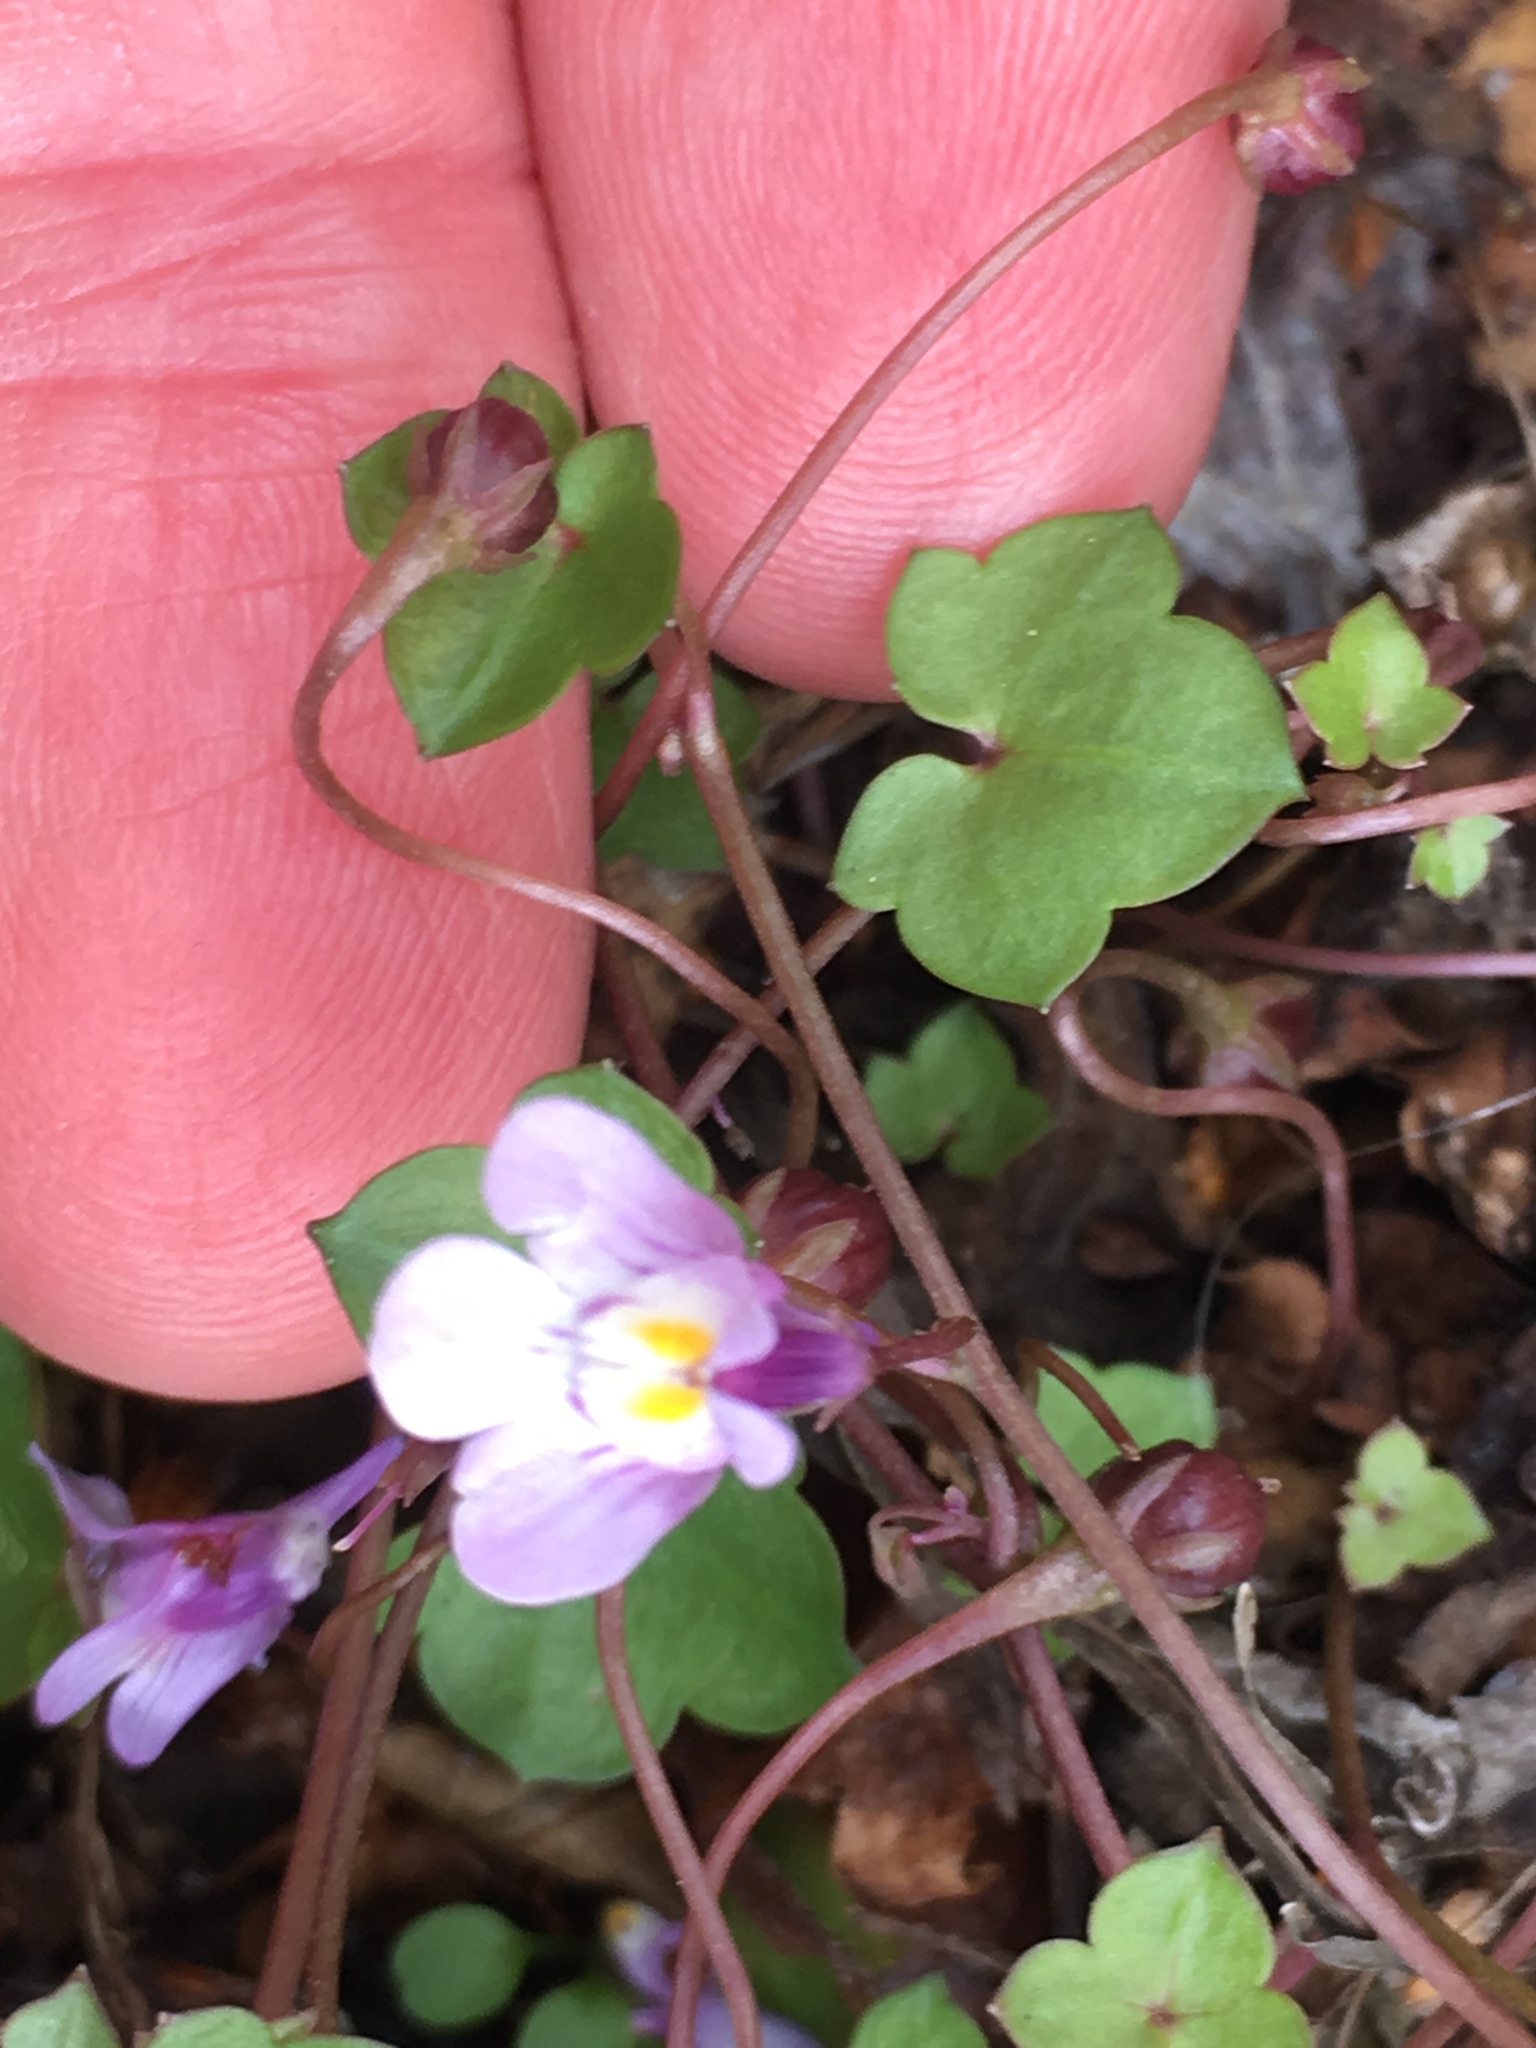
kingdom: Plantae
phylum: Tracheophyta
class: Magnoliopsida
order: Lamiales
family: Plantaginaceae
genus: Cymbalaria
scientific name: Cymbalaria muralis
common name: Ivy-leaved toadflax
